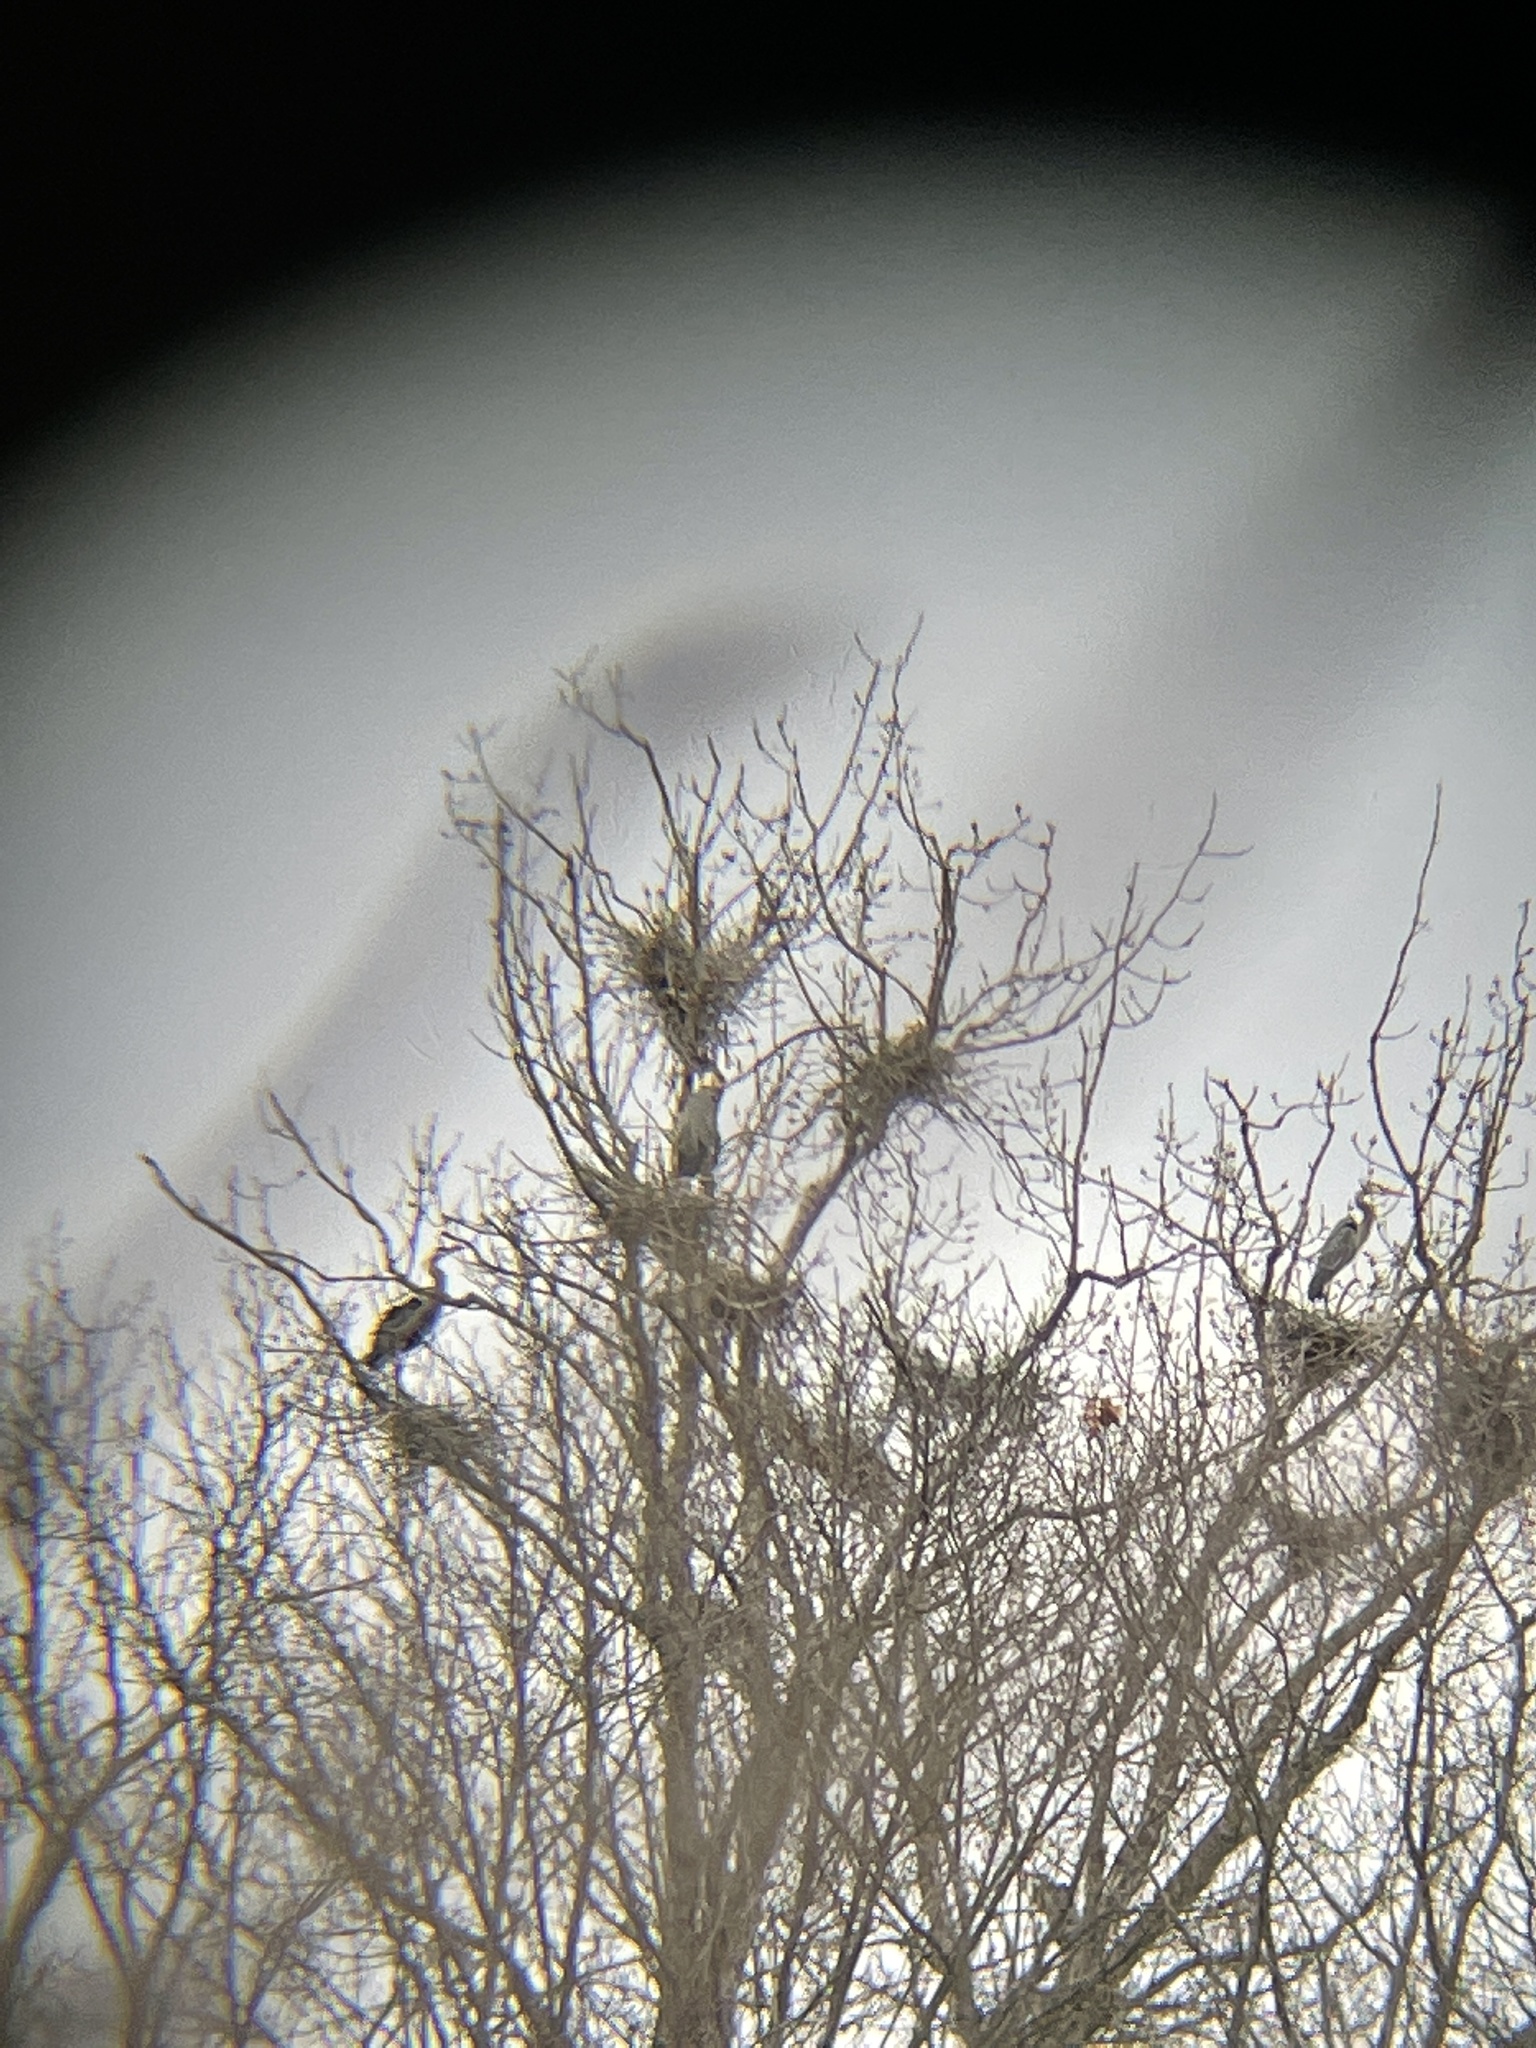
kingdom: Animalia
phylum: Chordata
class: Aves
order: Pelecaniformes
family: Ardeidae
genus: Ardea
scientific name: Ardea herodias
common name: Great blue heron
